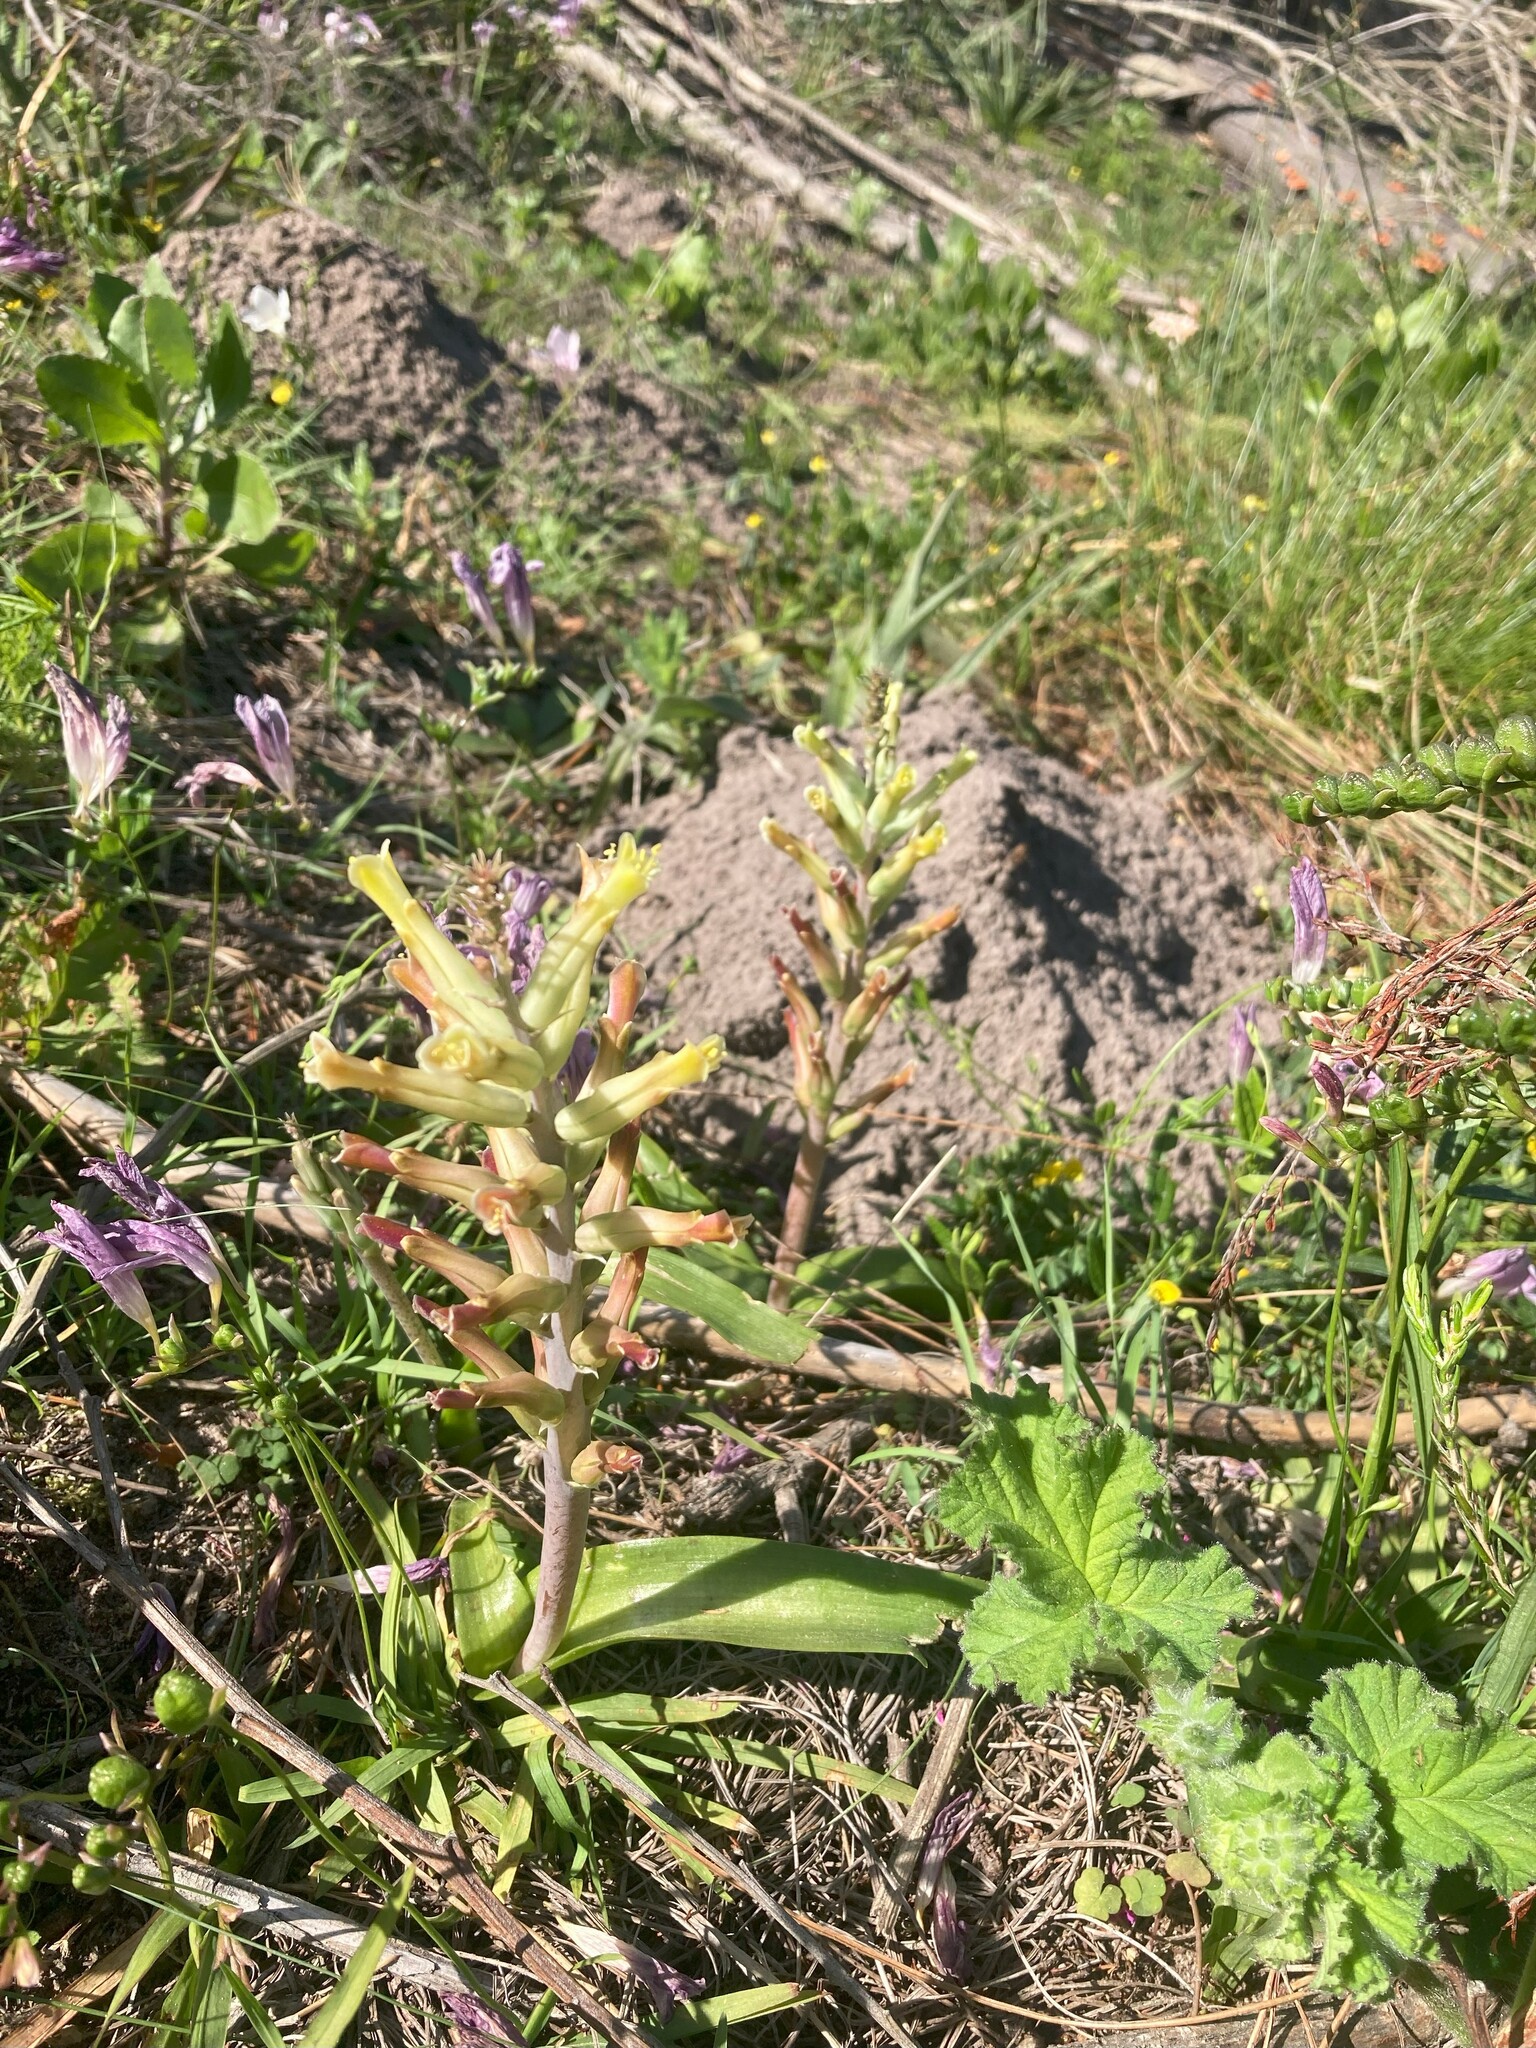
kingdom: Plantae
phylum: Tracheophyta
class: Liliopsida
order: Asparagales
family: Asparagaceae
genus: Lachenalia
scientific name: Lachenalia algoensis
